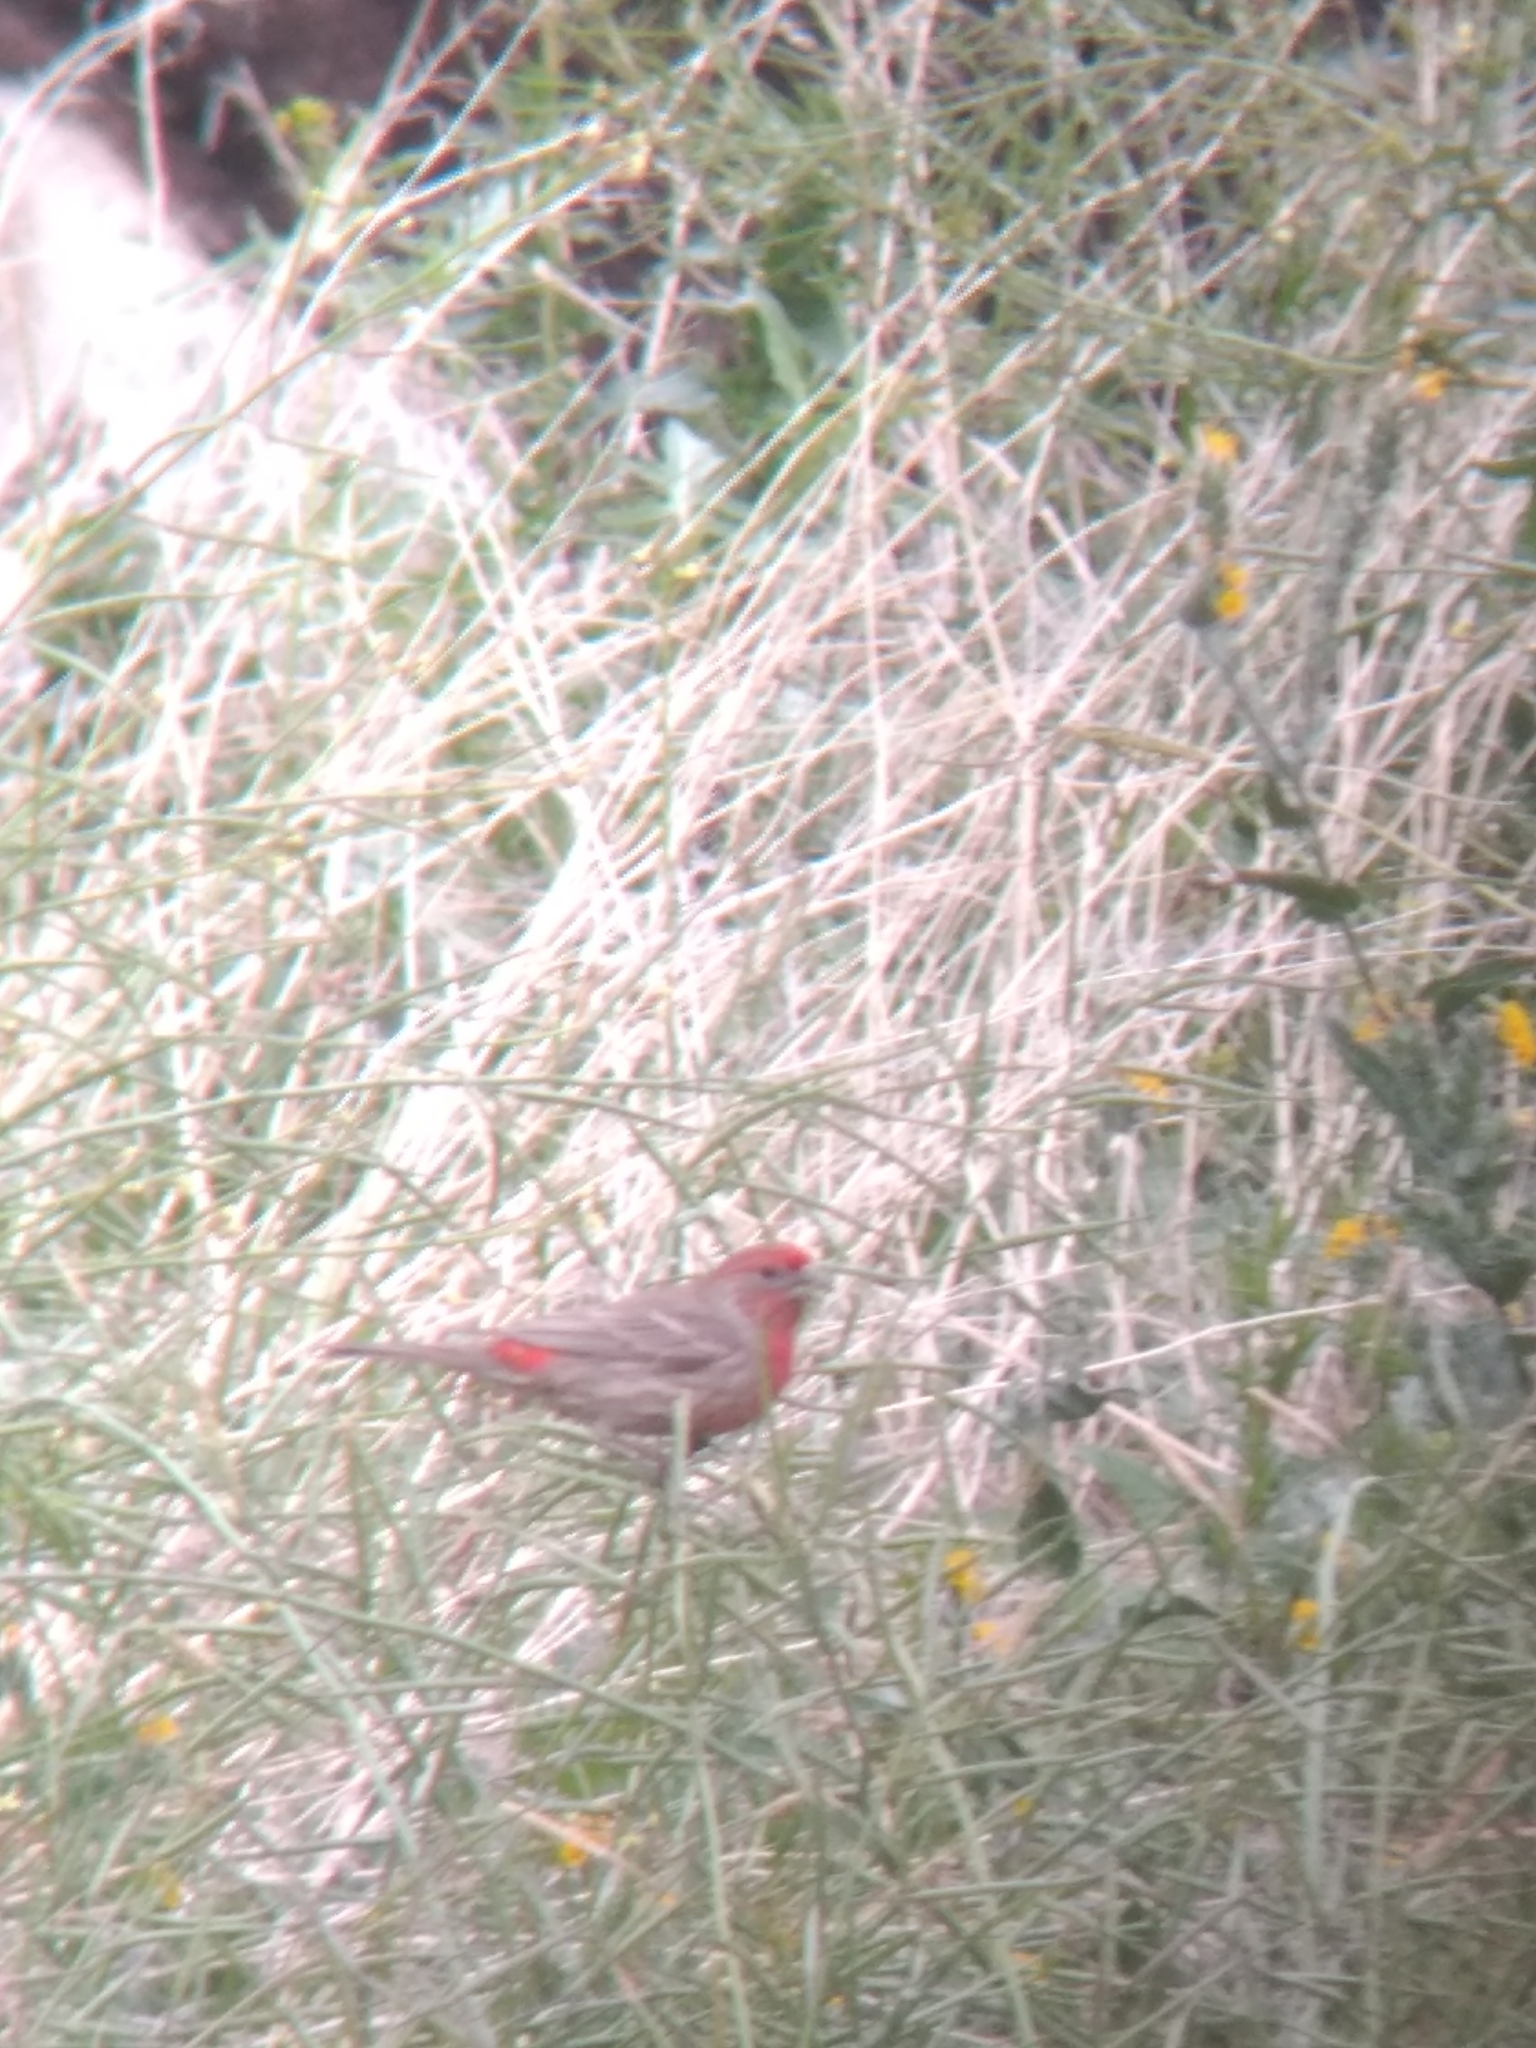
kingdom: Animalia
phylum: Chordata
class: Aves
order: Passeriformes
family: Fringillidae
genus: Haemorhous
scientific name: Haemorhous mexicanus
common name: House finch
